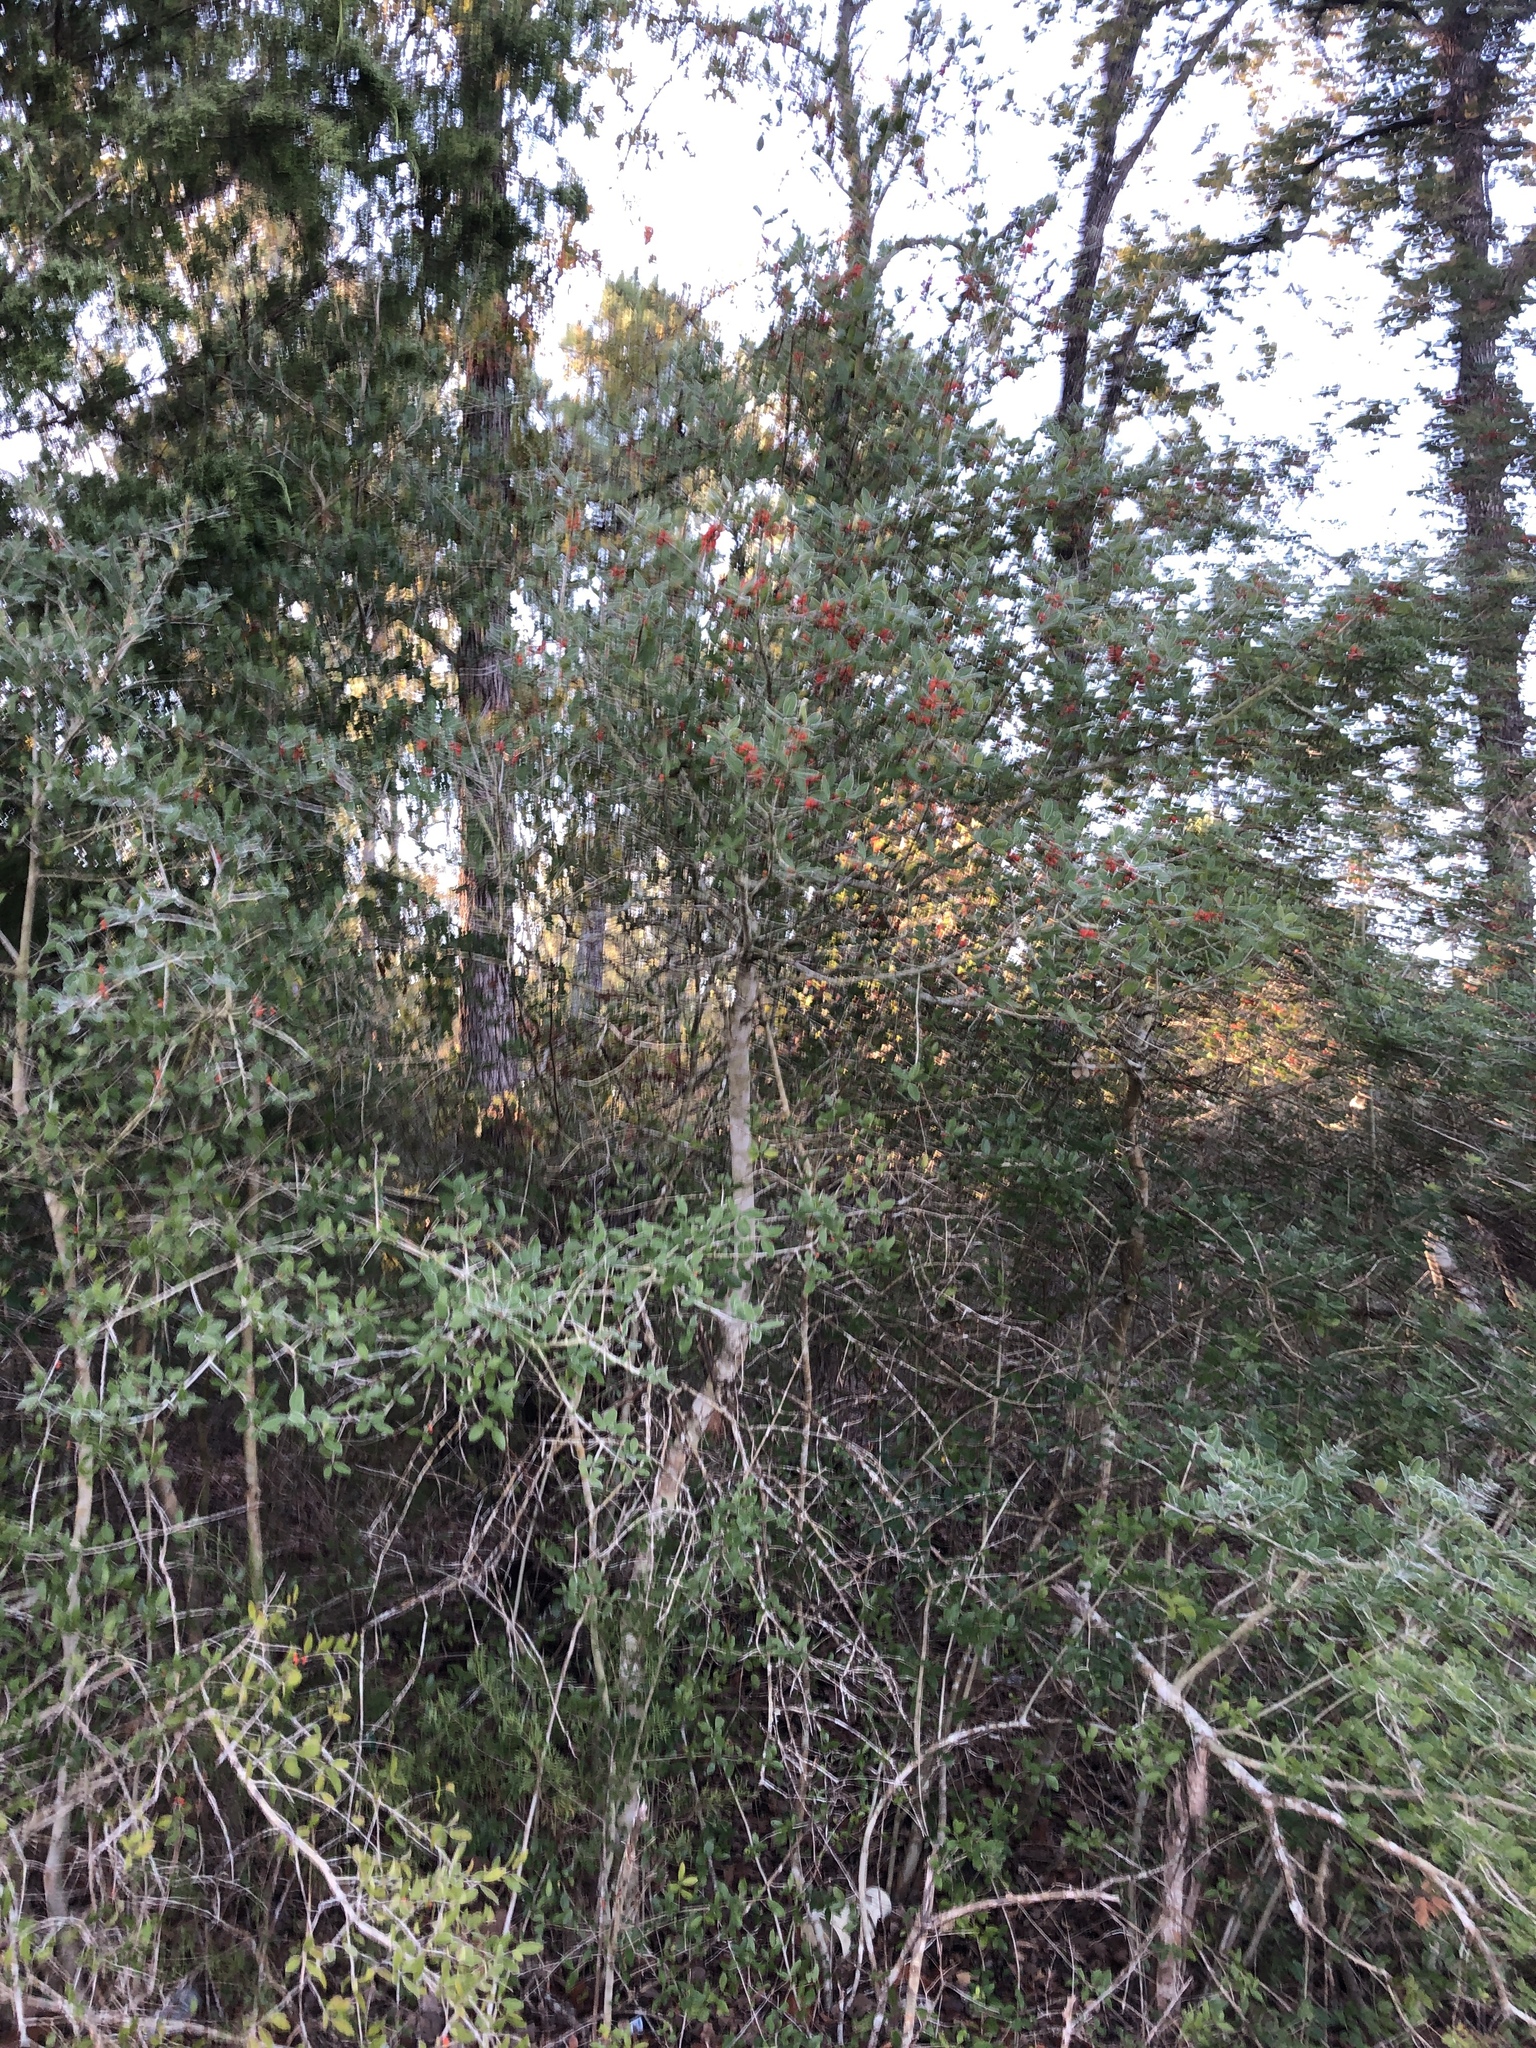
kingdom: Plantae
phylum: Tracheophyta
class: Magnoliopsida
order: Aquifoliales
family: Aquifoliaceae
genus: Ilex
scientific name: Ilex vomitoria
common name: Yaupon holly
